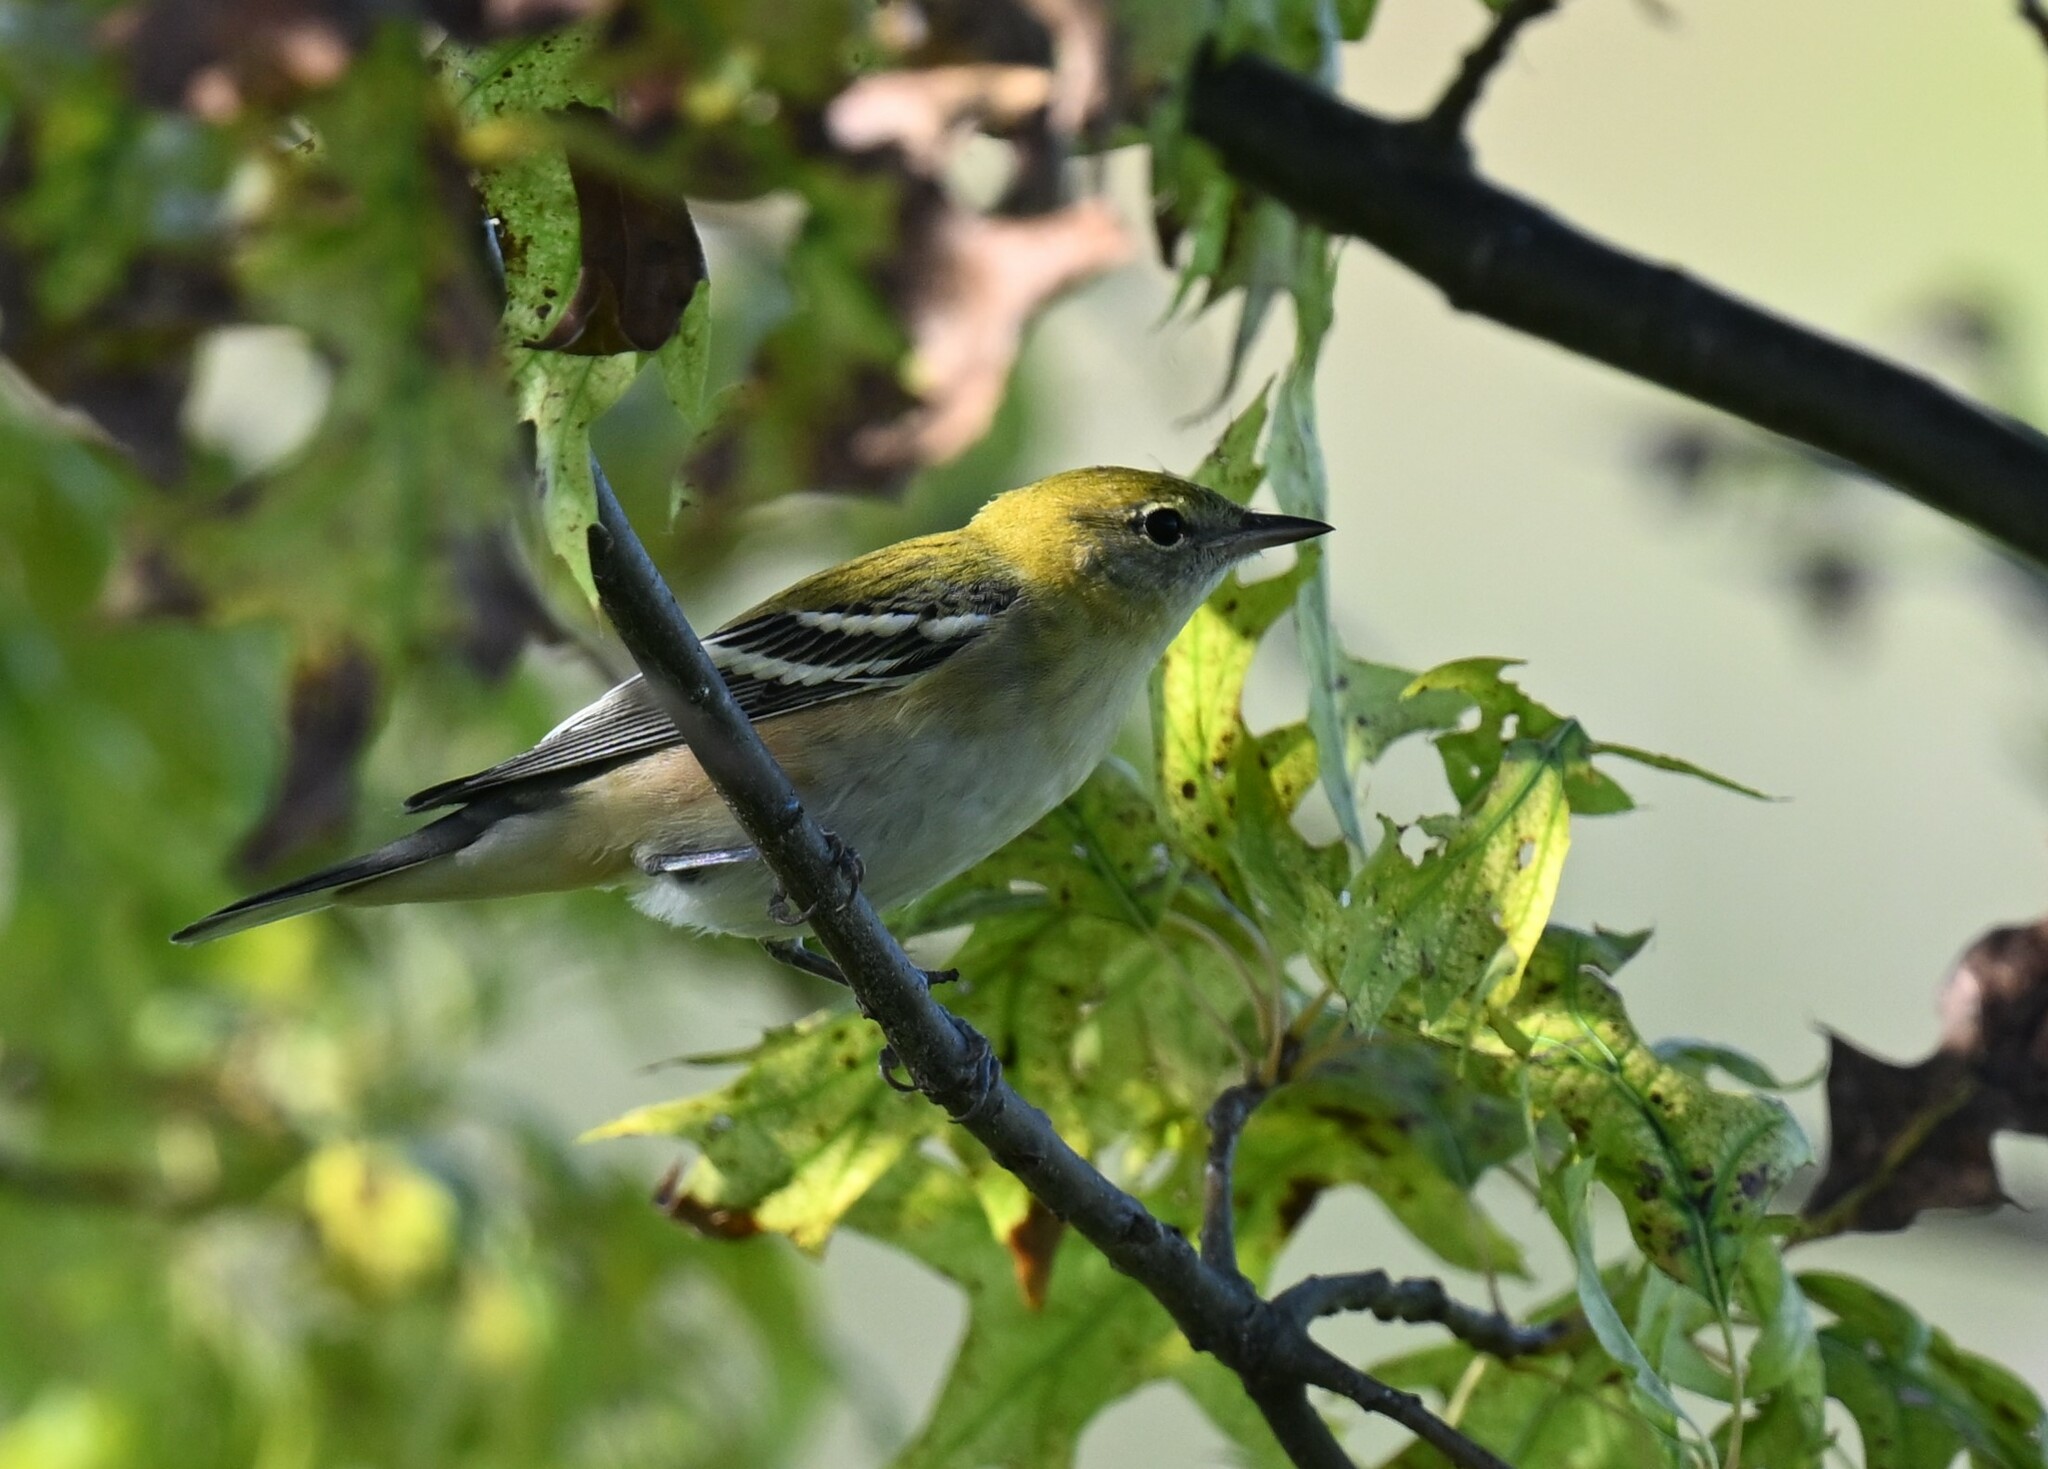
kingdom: Animalia
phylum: Chordata
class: Aves
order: Passeriformes
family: Parulidae
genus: Setophaga
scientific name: Setophaga castanea
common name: Bay-breasted warbler
